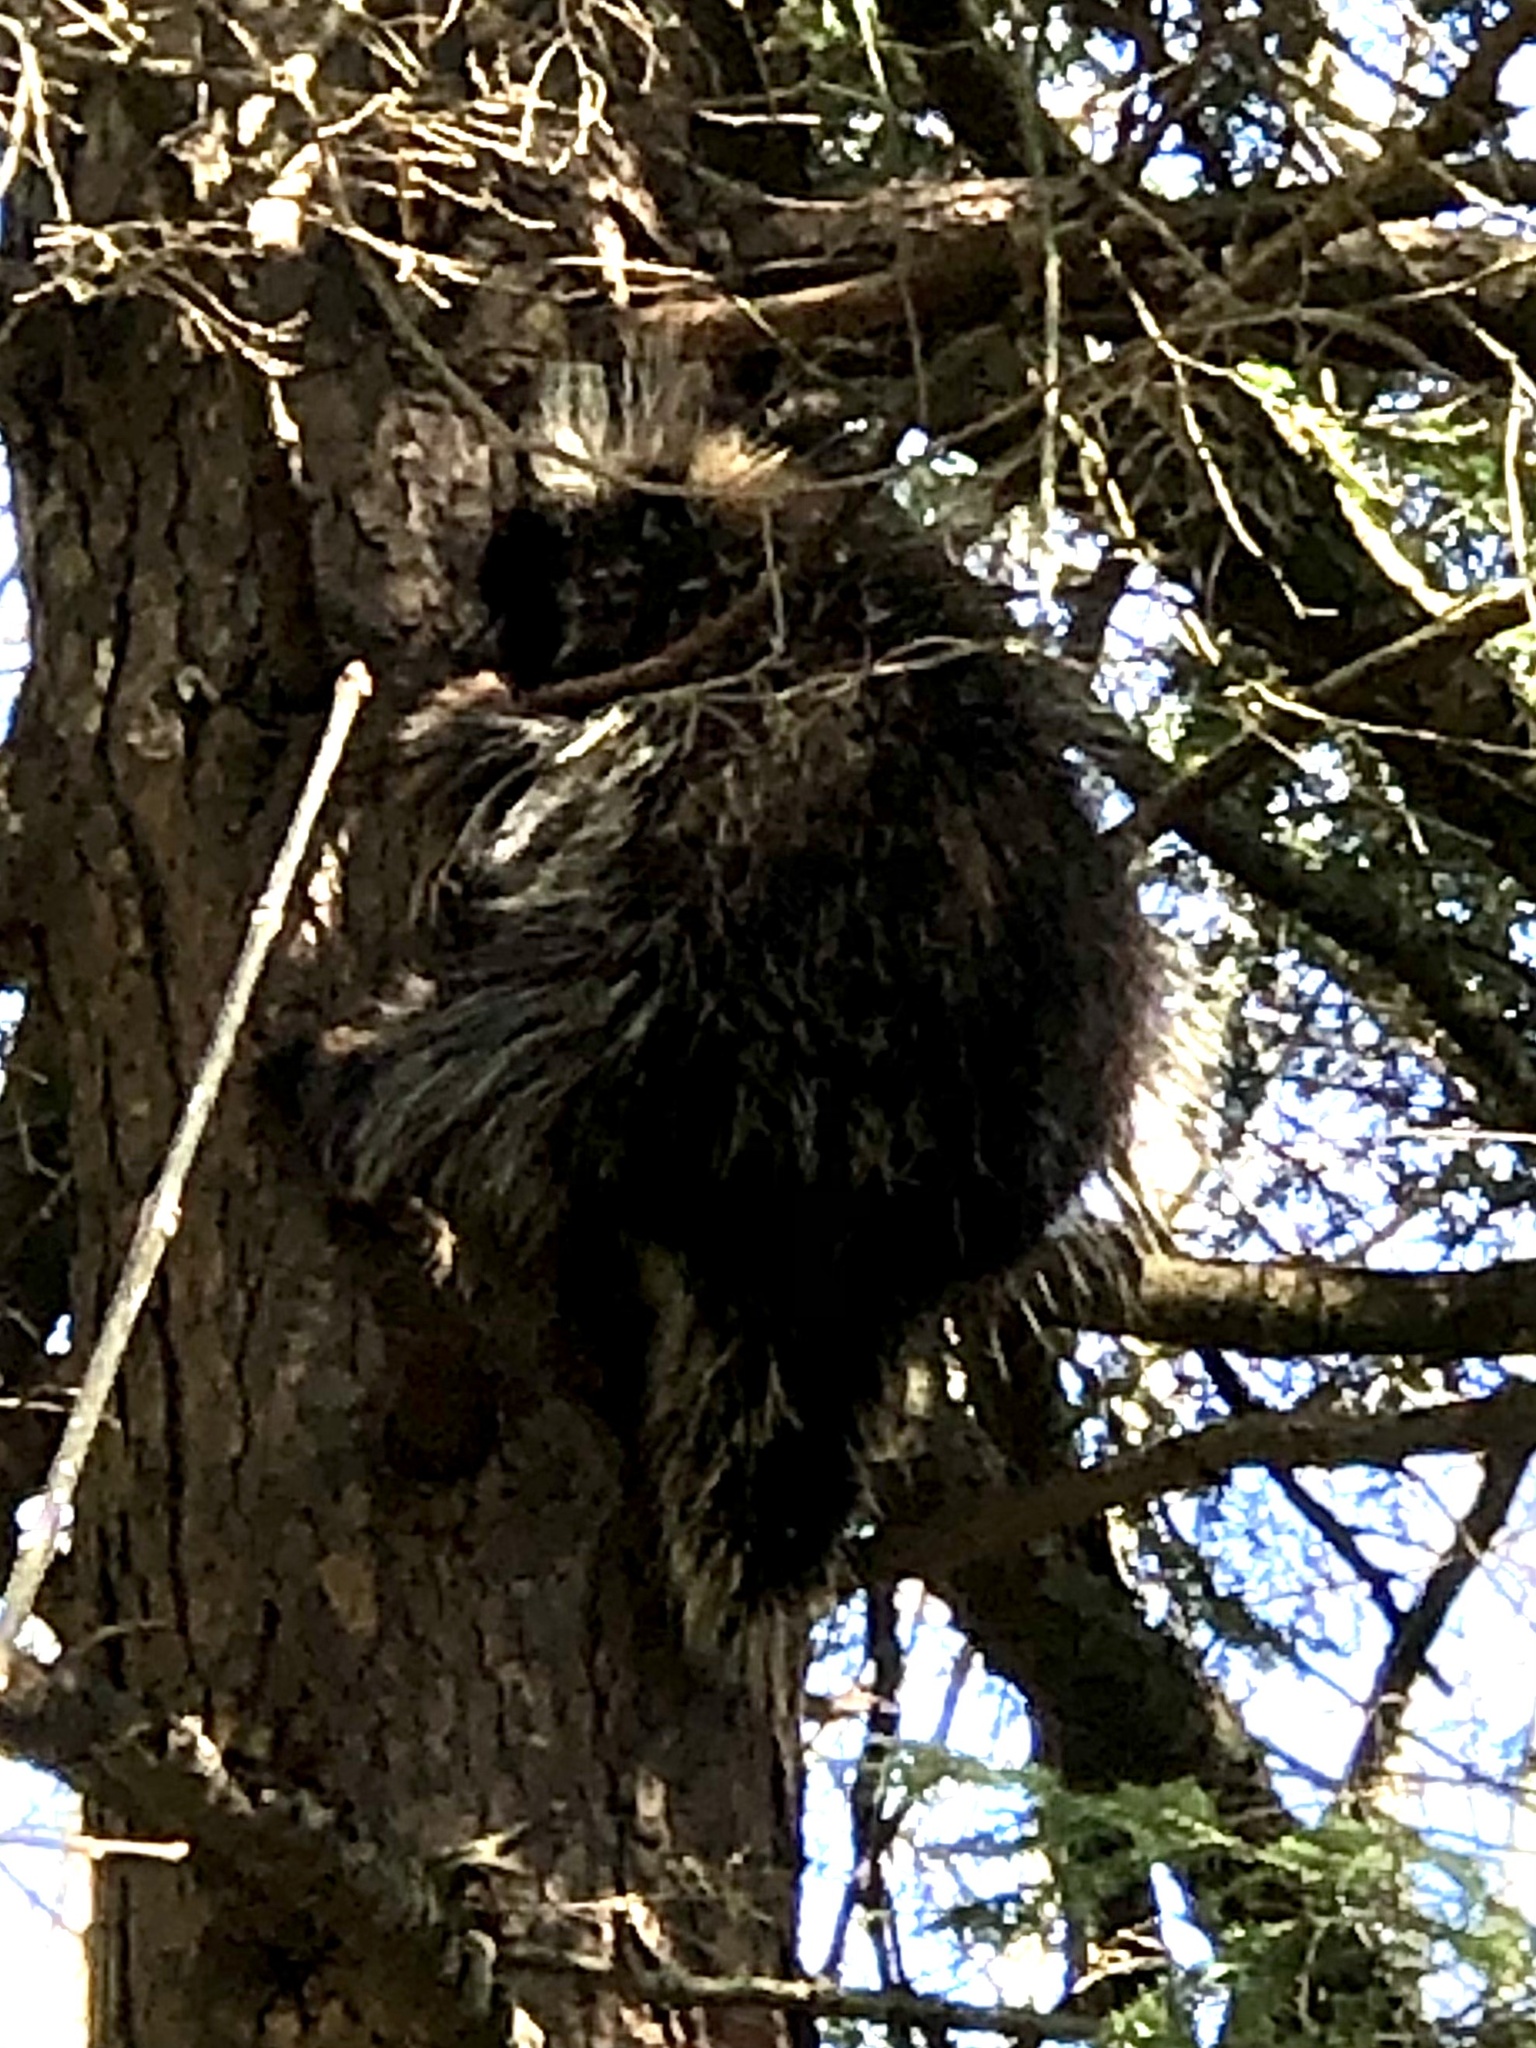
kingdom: Animalia
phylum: Chordata
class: Mammalia
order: Rodentia
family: Erethizontidae
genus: Erethizon
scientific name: Erethizon dorsatus
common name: North american porcupine
